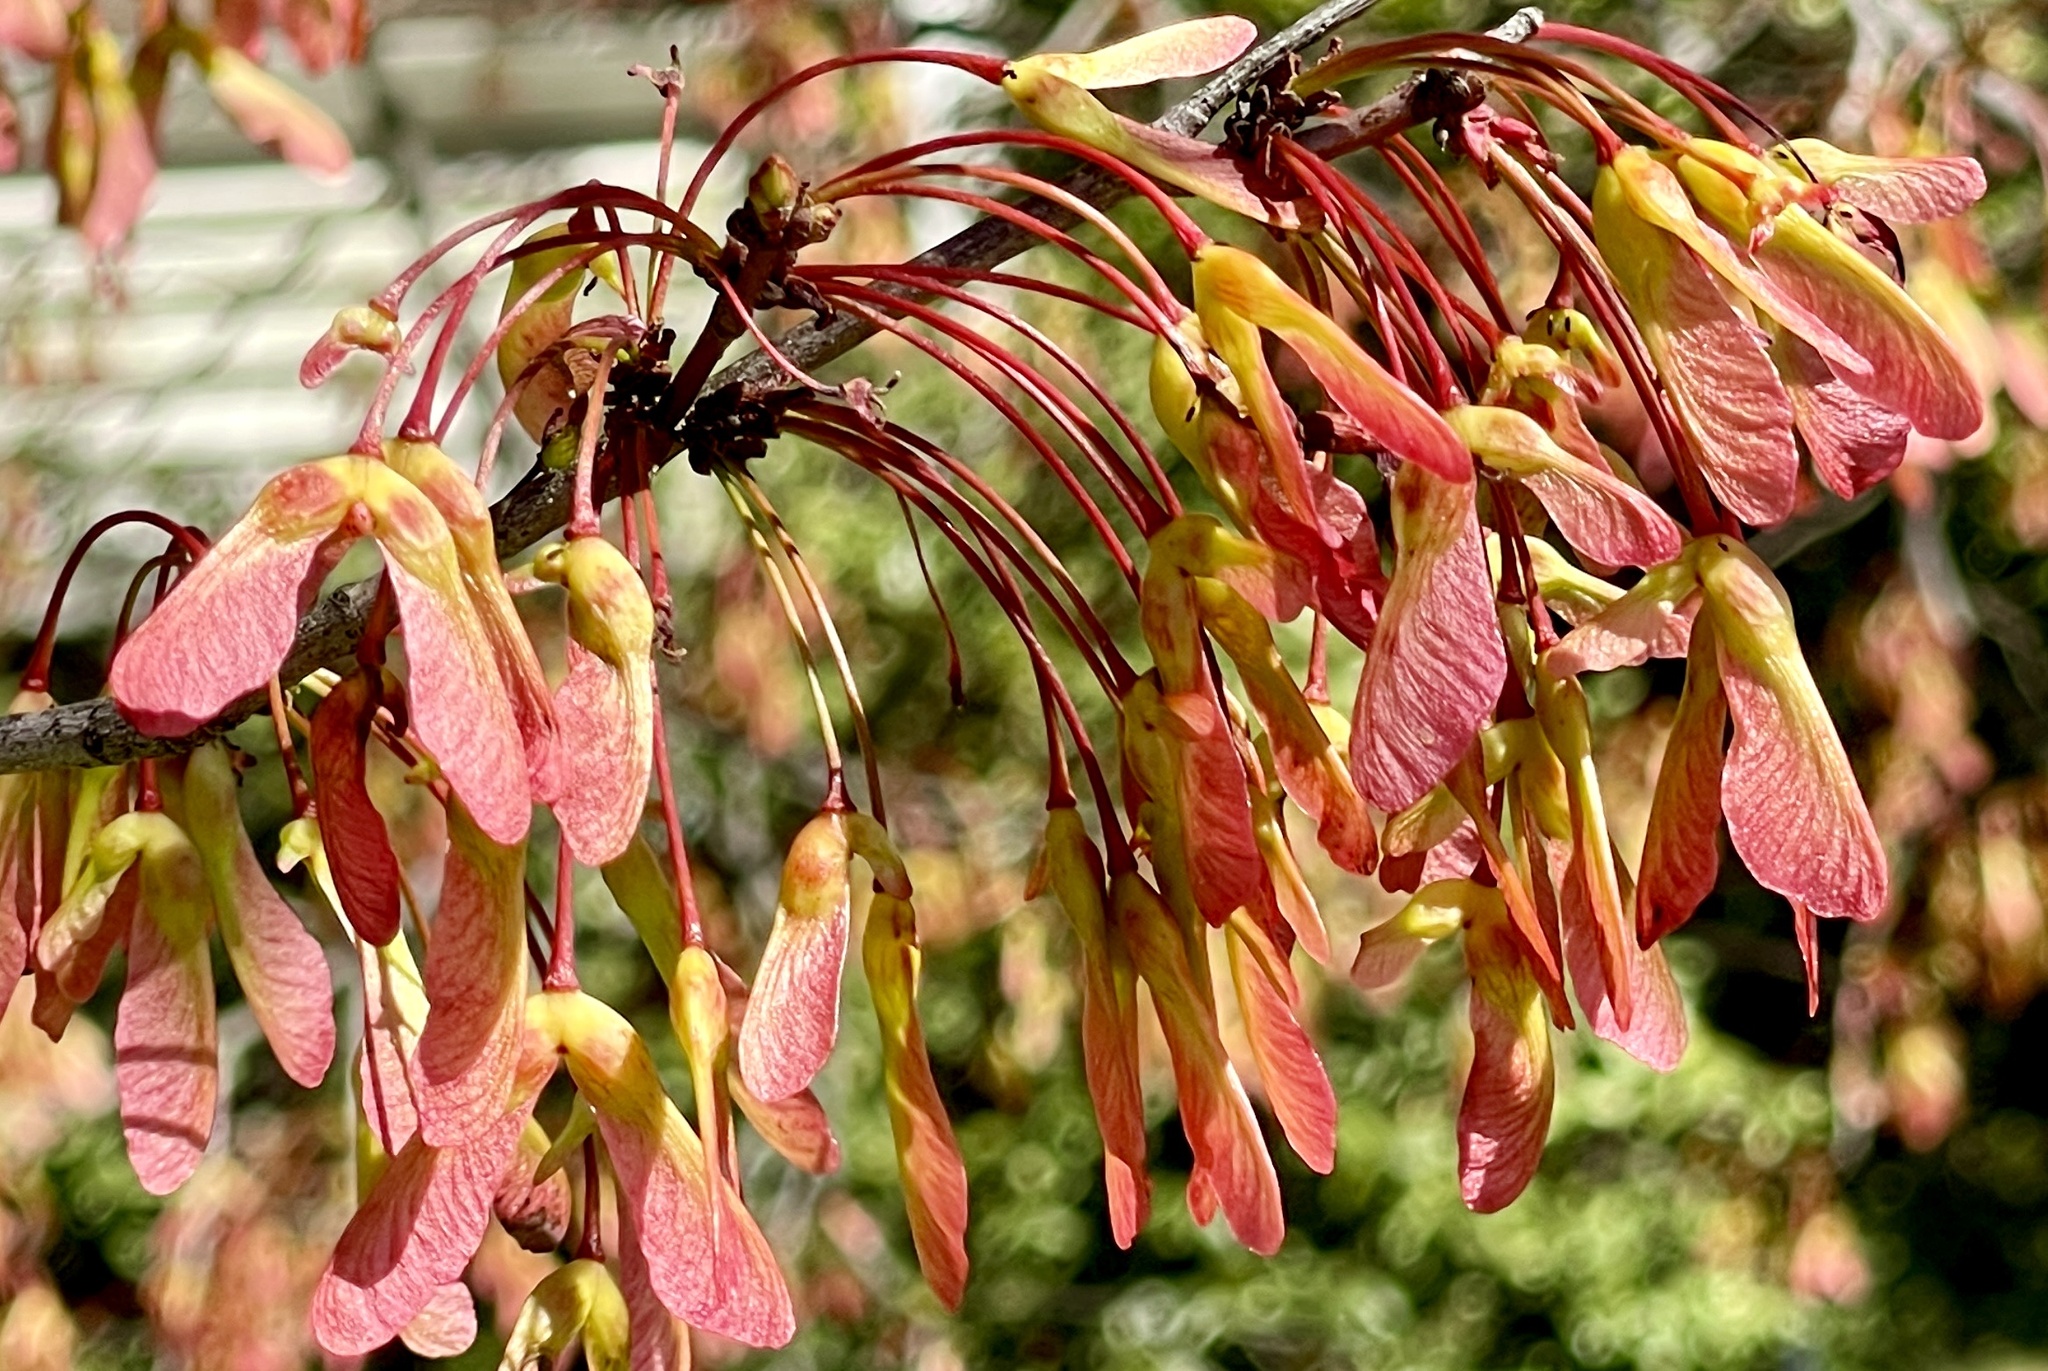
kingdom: Plantae
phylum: Tracheophyta
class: Magnoliopsida
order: Sapindales
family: Sapindaceae
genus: Acer
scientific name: Acer rubrum
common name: Red maple
